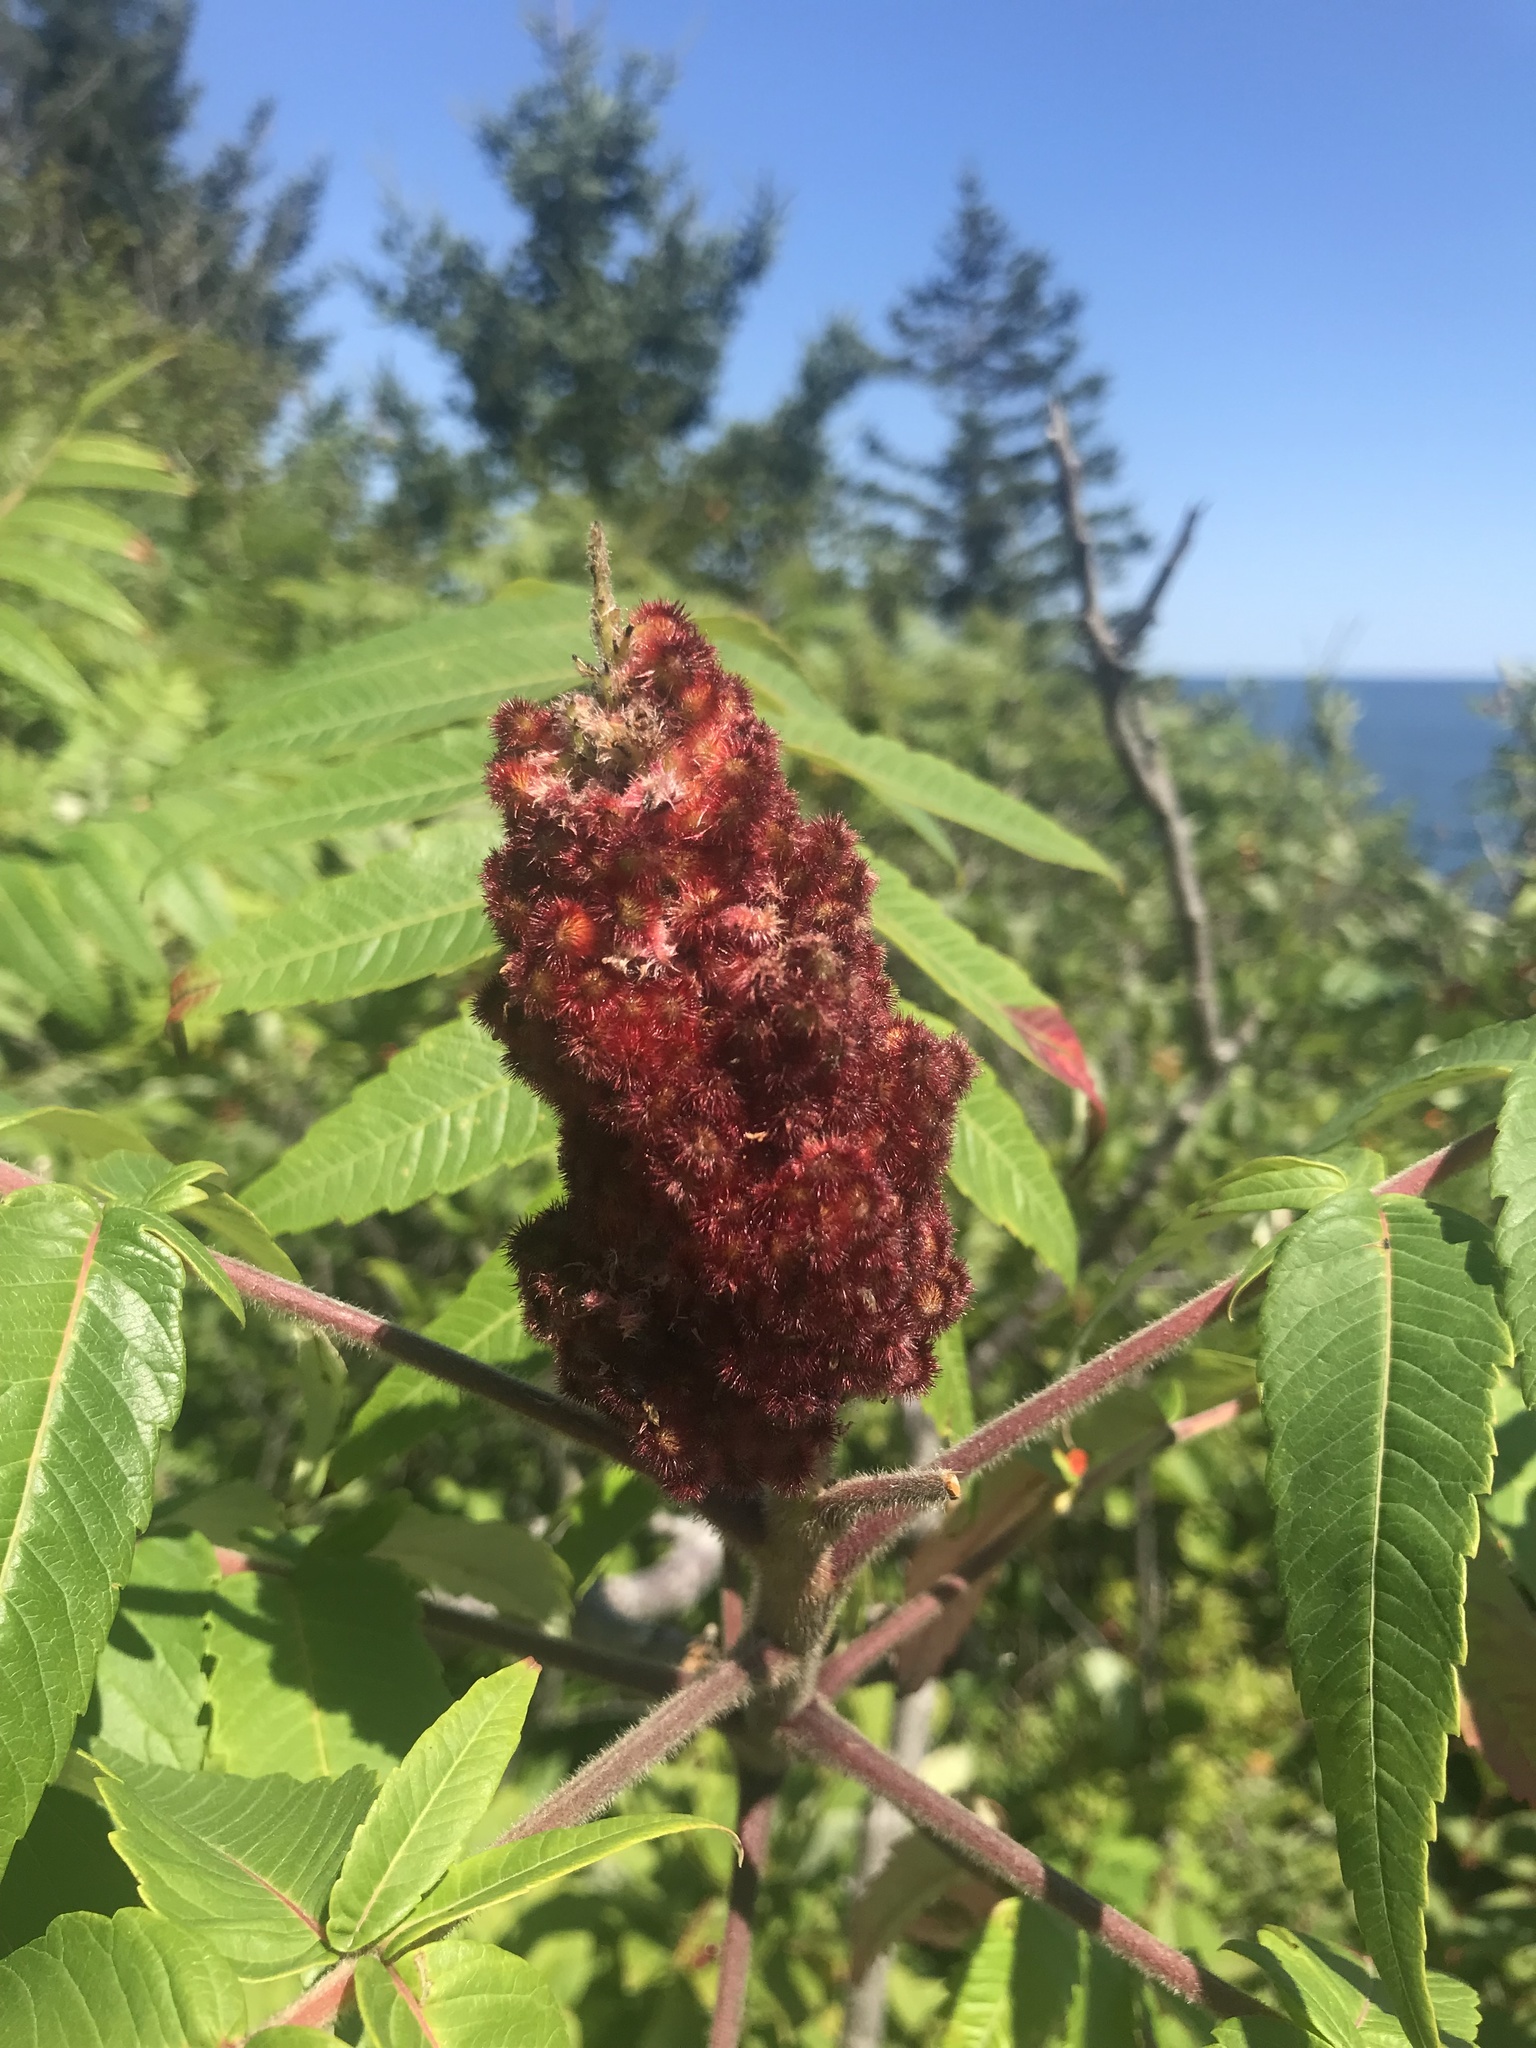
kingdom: Plantae
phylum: Tracheophyta
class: Magnoliopsida
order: Sapindales
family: Anacardiaceae
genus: Rhus
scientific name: Rhus typhina
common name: Staghorn sumac
